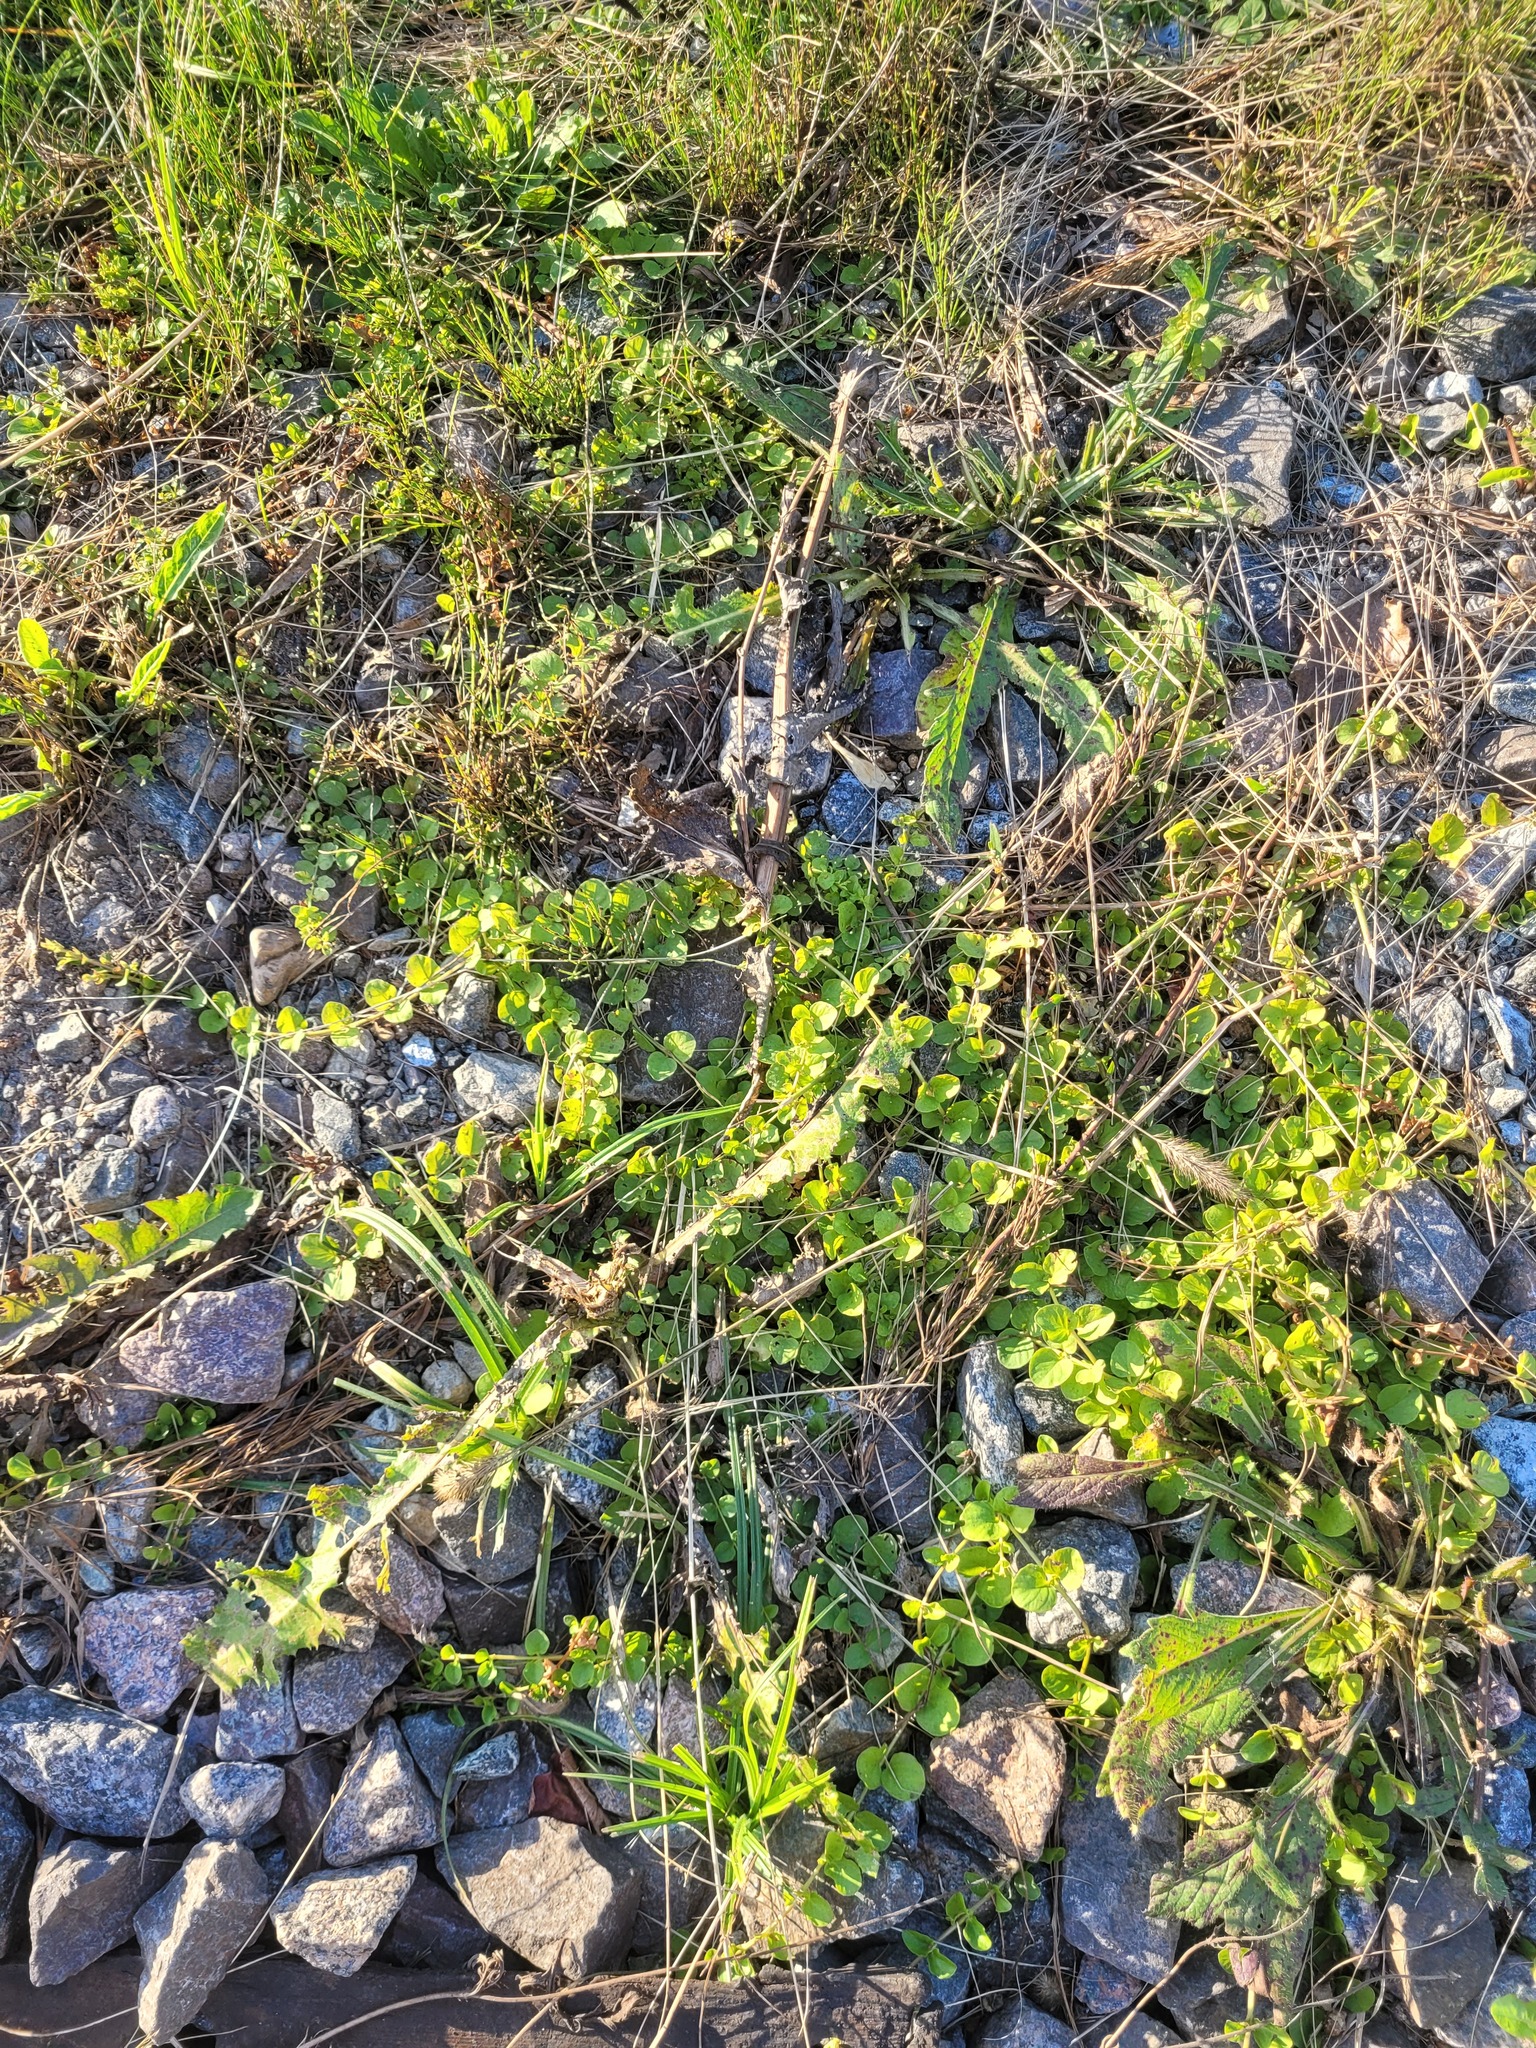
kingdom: Plantae
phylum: Tracheophyta
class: Magnoliopsida
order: Ericales
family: Primulaceae
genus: Lysimachia
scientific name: Lysimachia nummularia
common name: Moneywort
